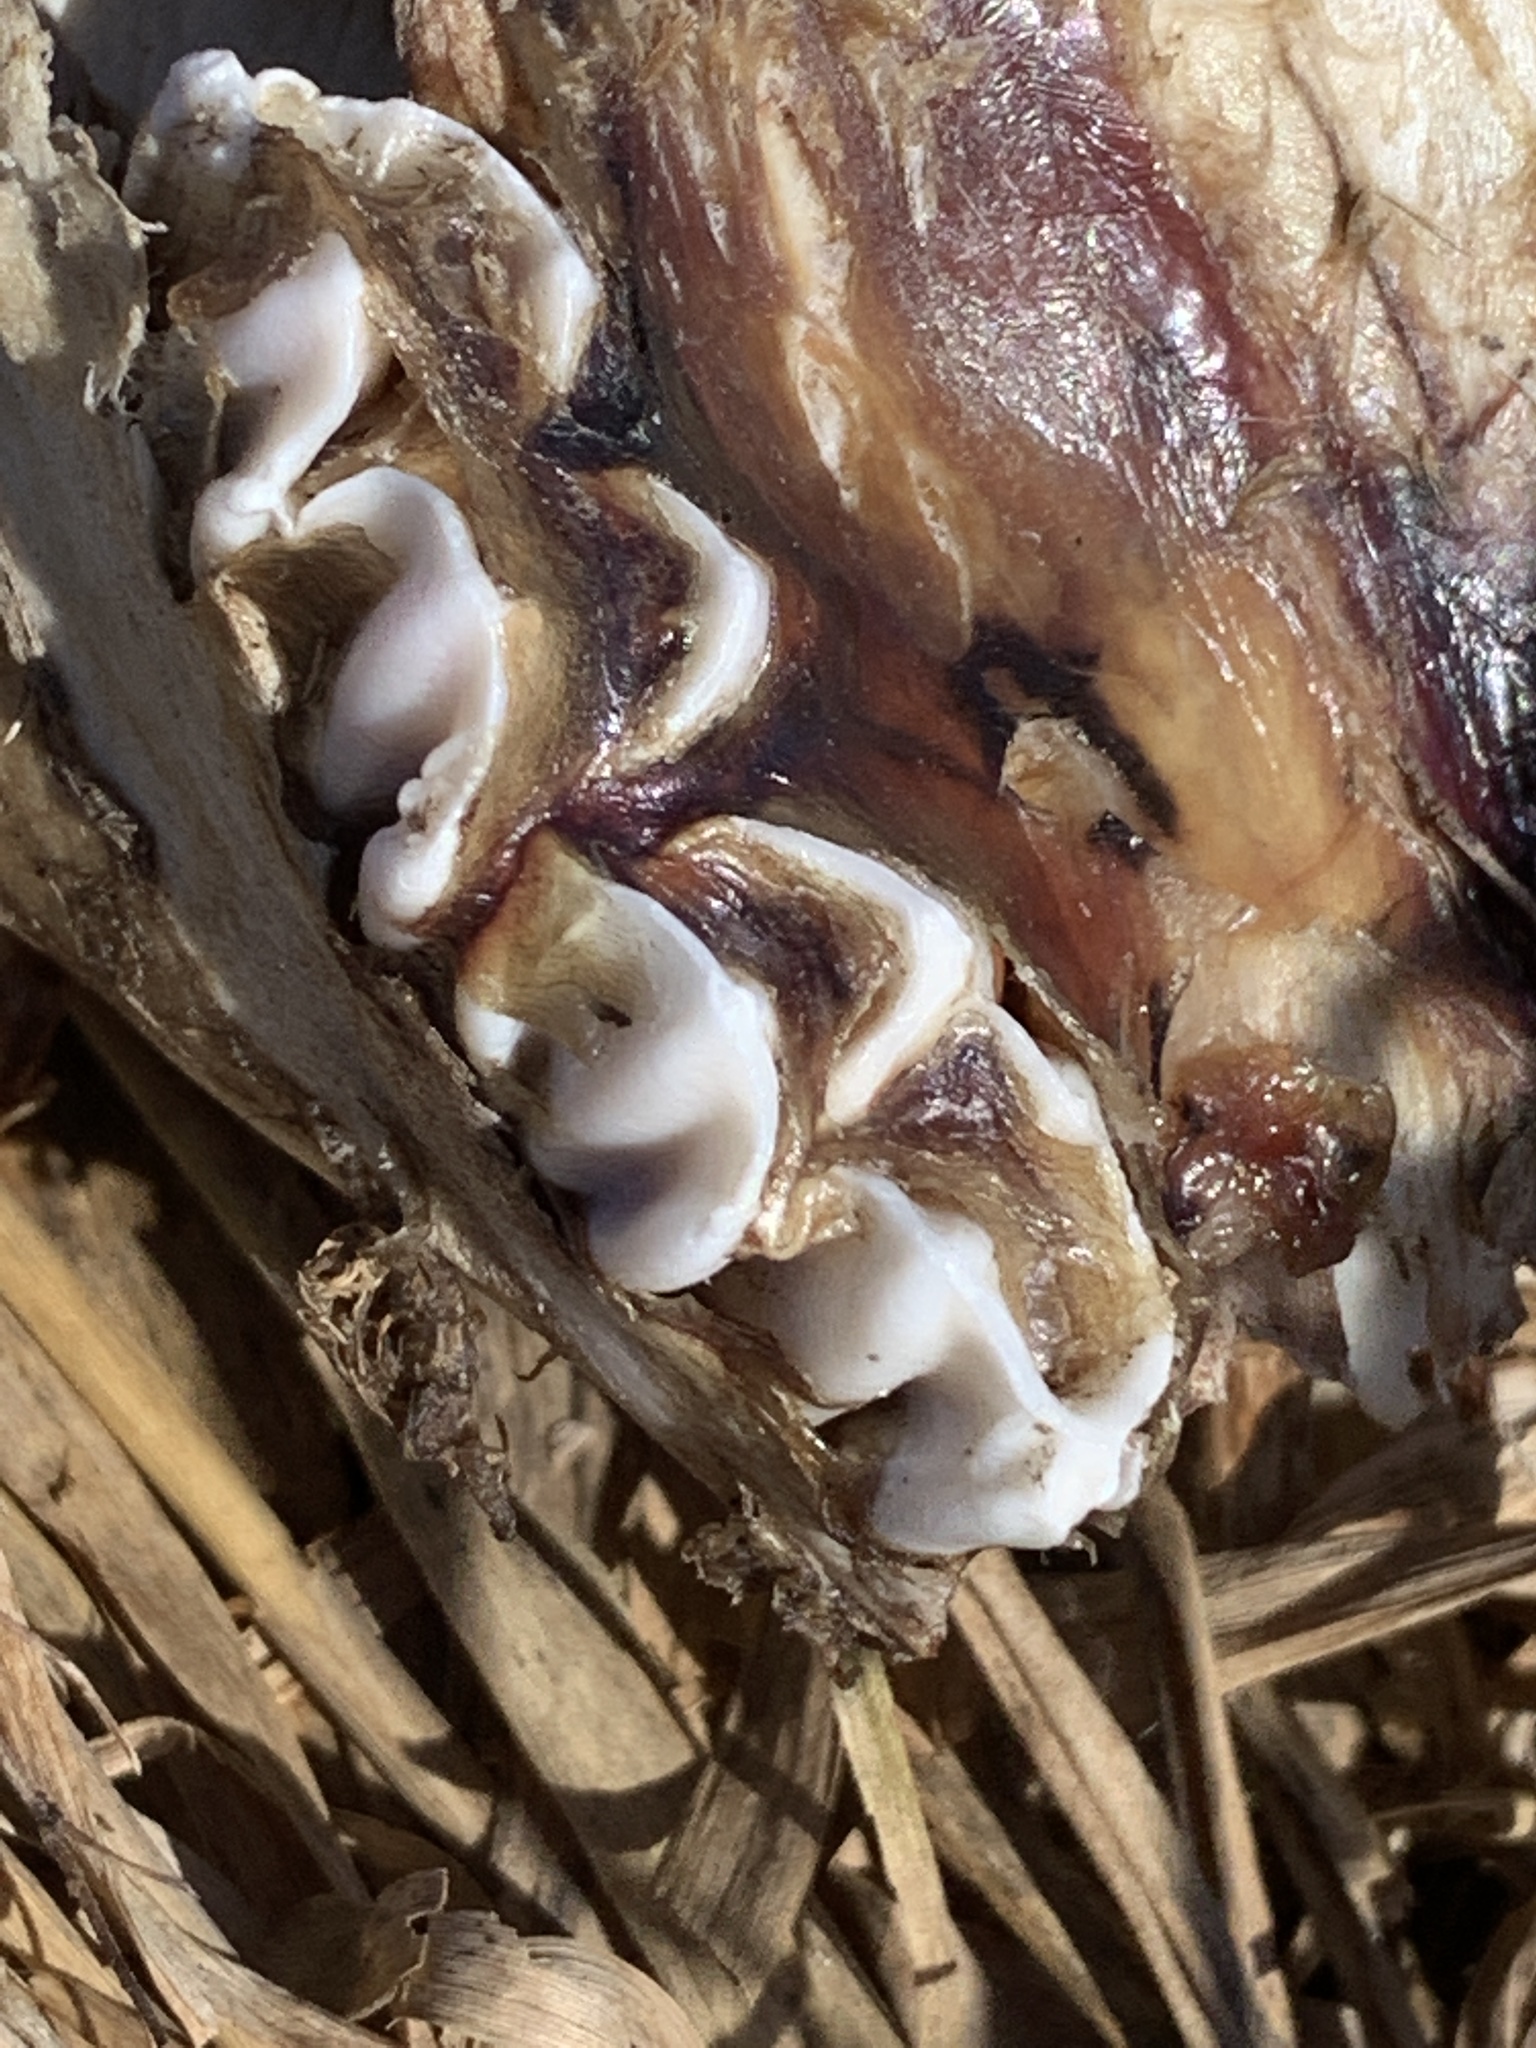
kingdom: Animalia
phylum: Chordata
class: Mammalia
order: Artiodactyla
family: Bovidae
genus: Bos
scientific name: Bos taurus
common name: Domesticated cattle
